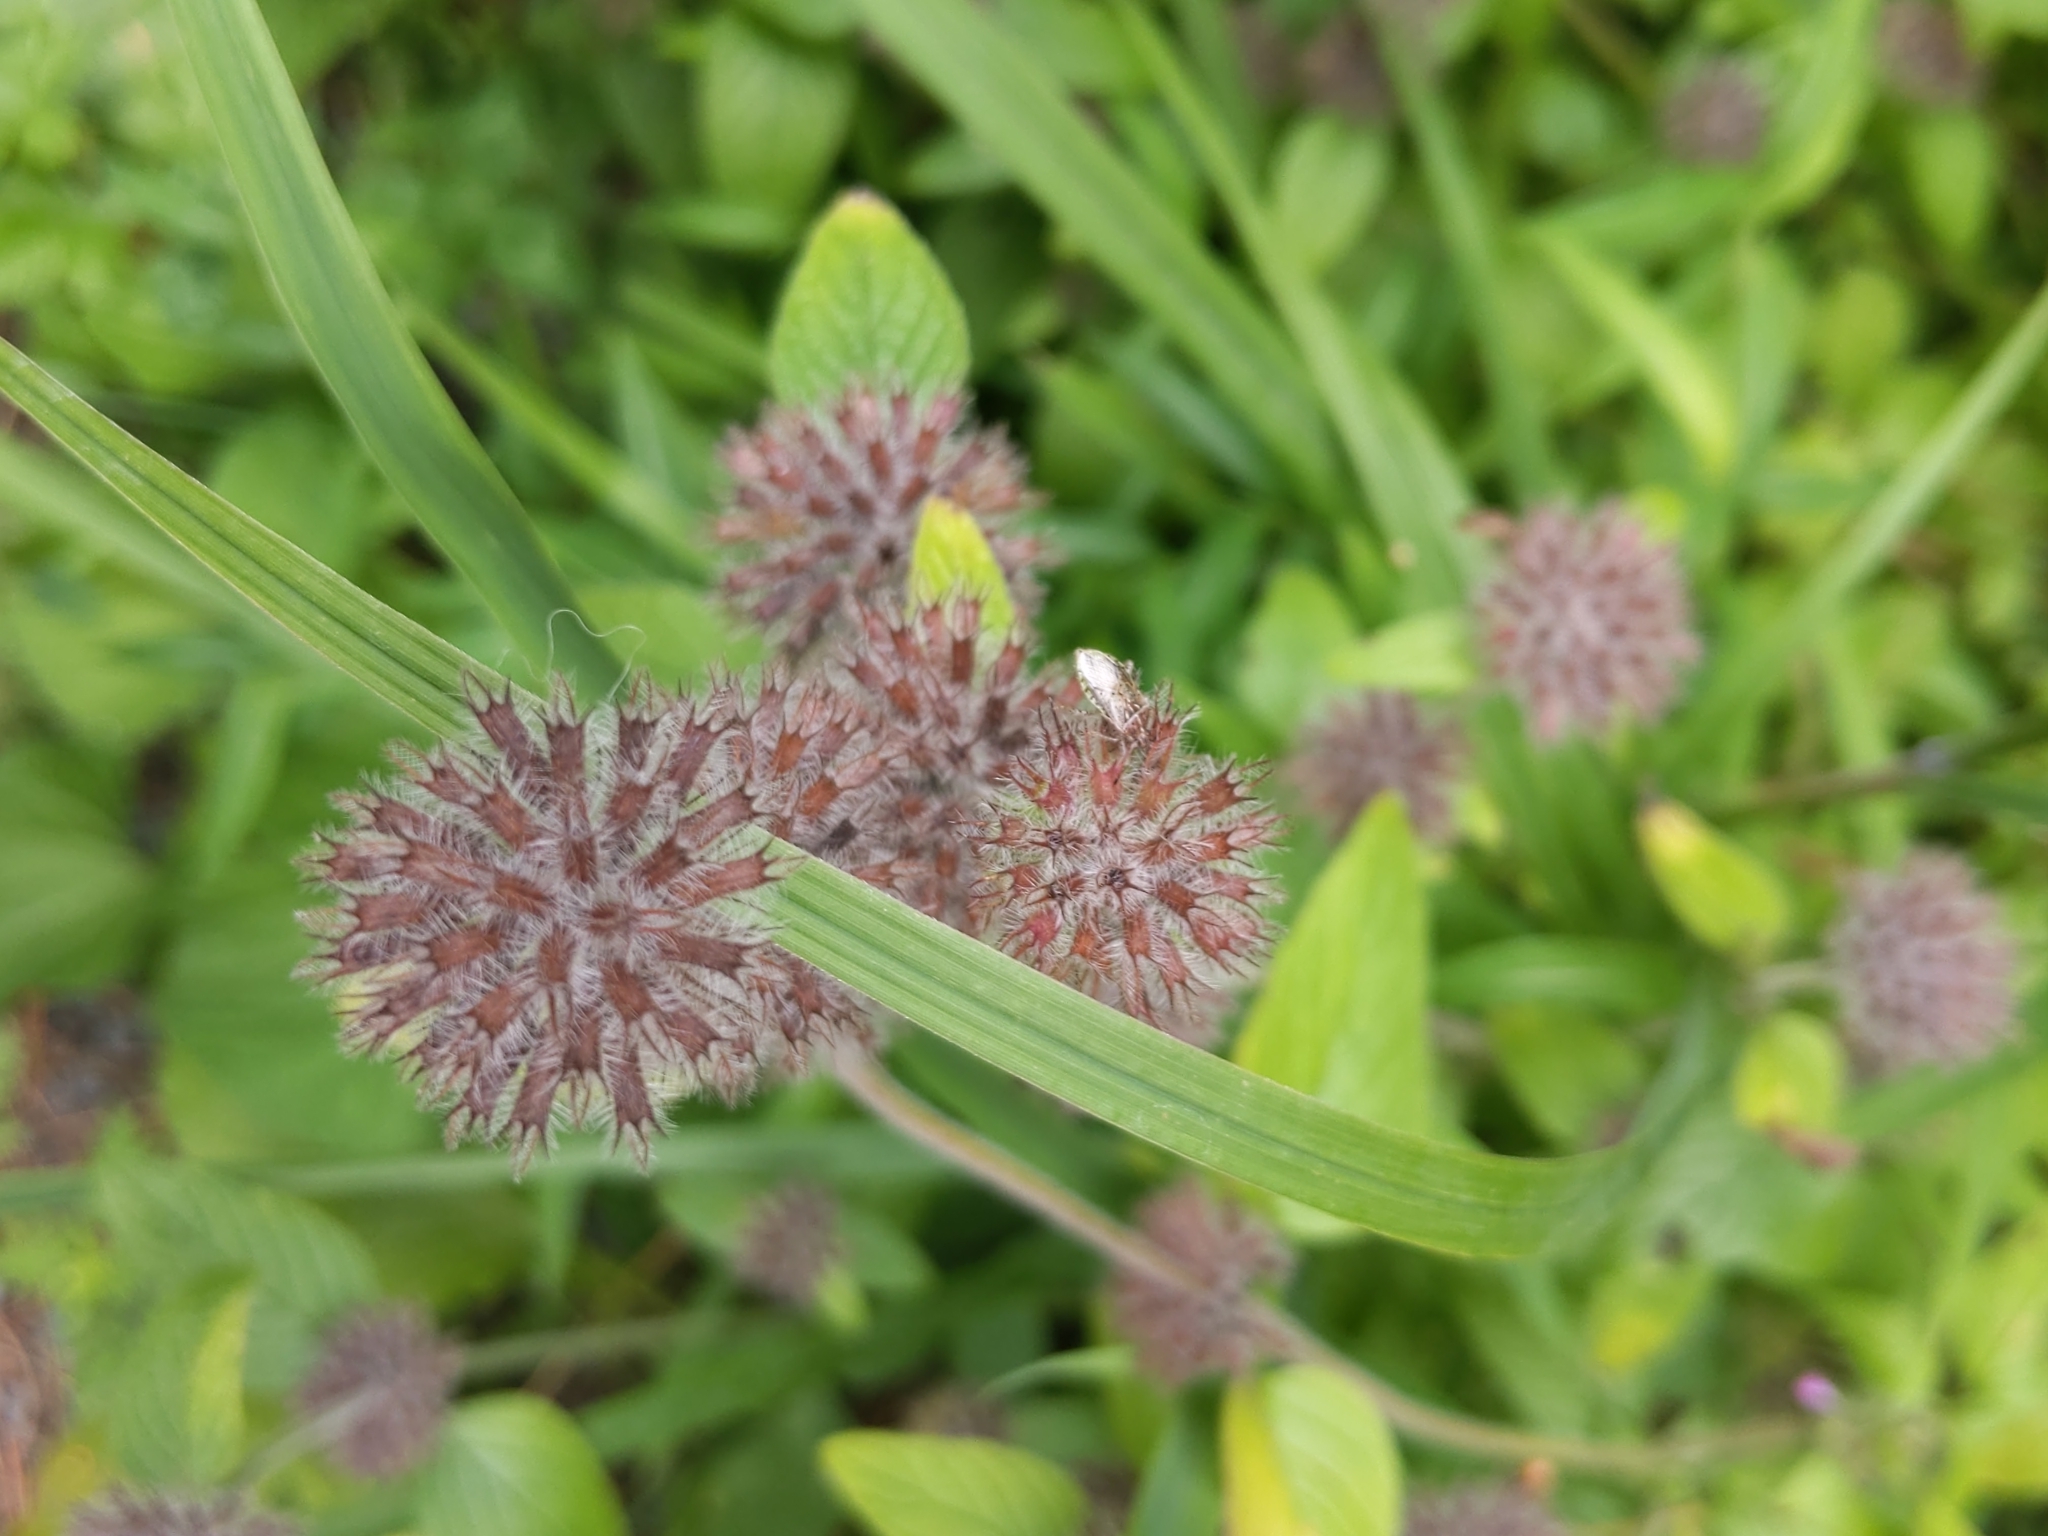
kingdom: Plantae
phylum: Tracheophyta
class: Magnoliopsida
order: Lamiales
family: Lamiaceae
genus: Clinopodium
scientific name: Clinopodium vulgare
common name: Wild basil
